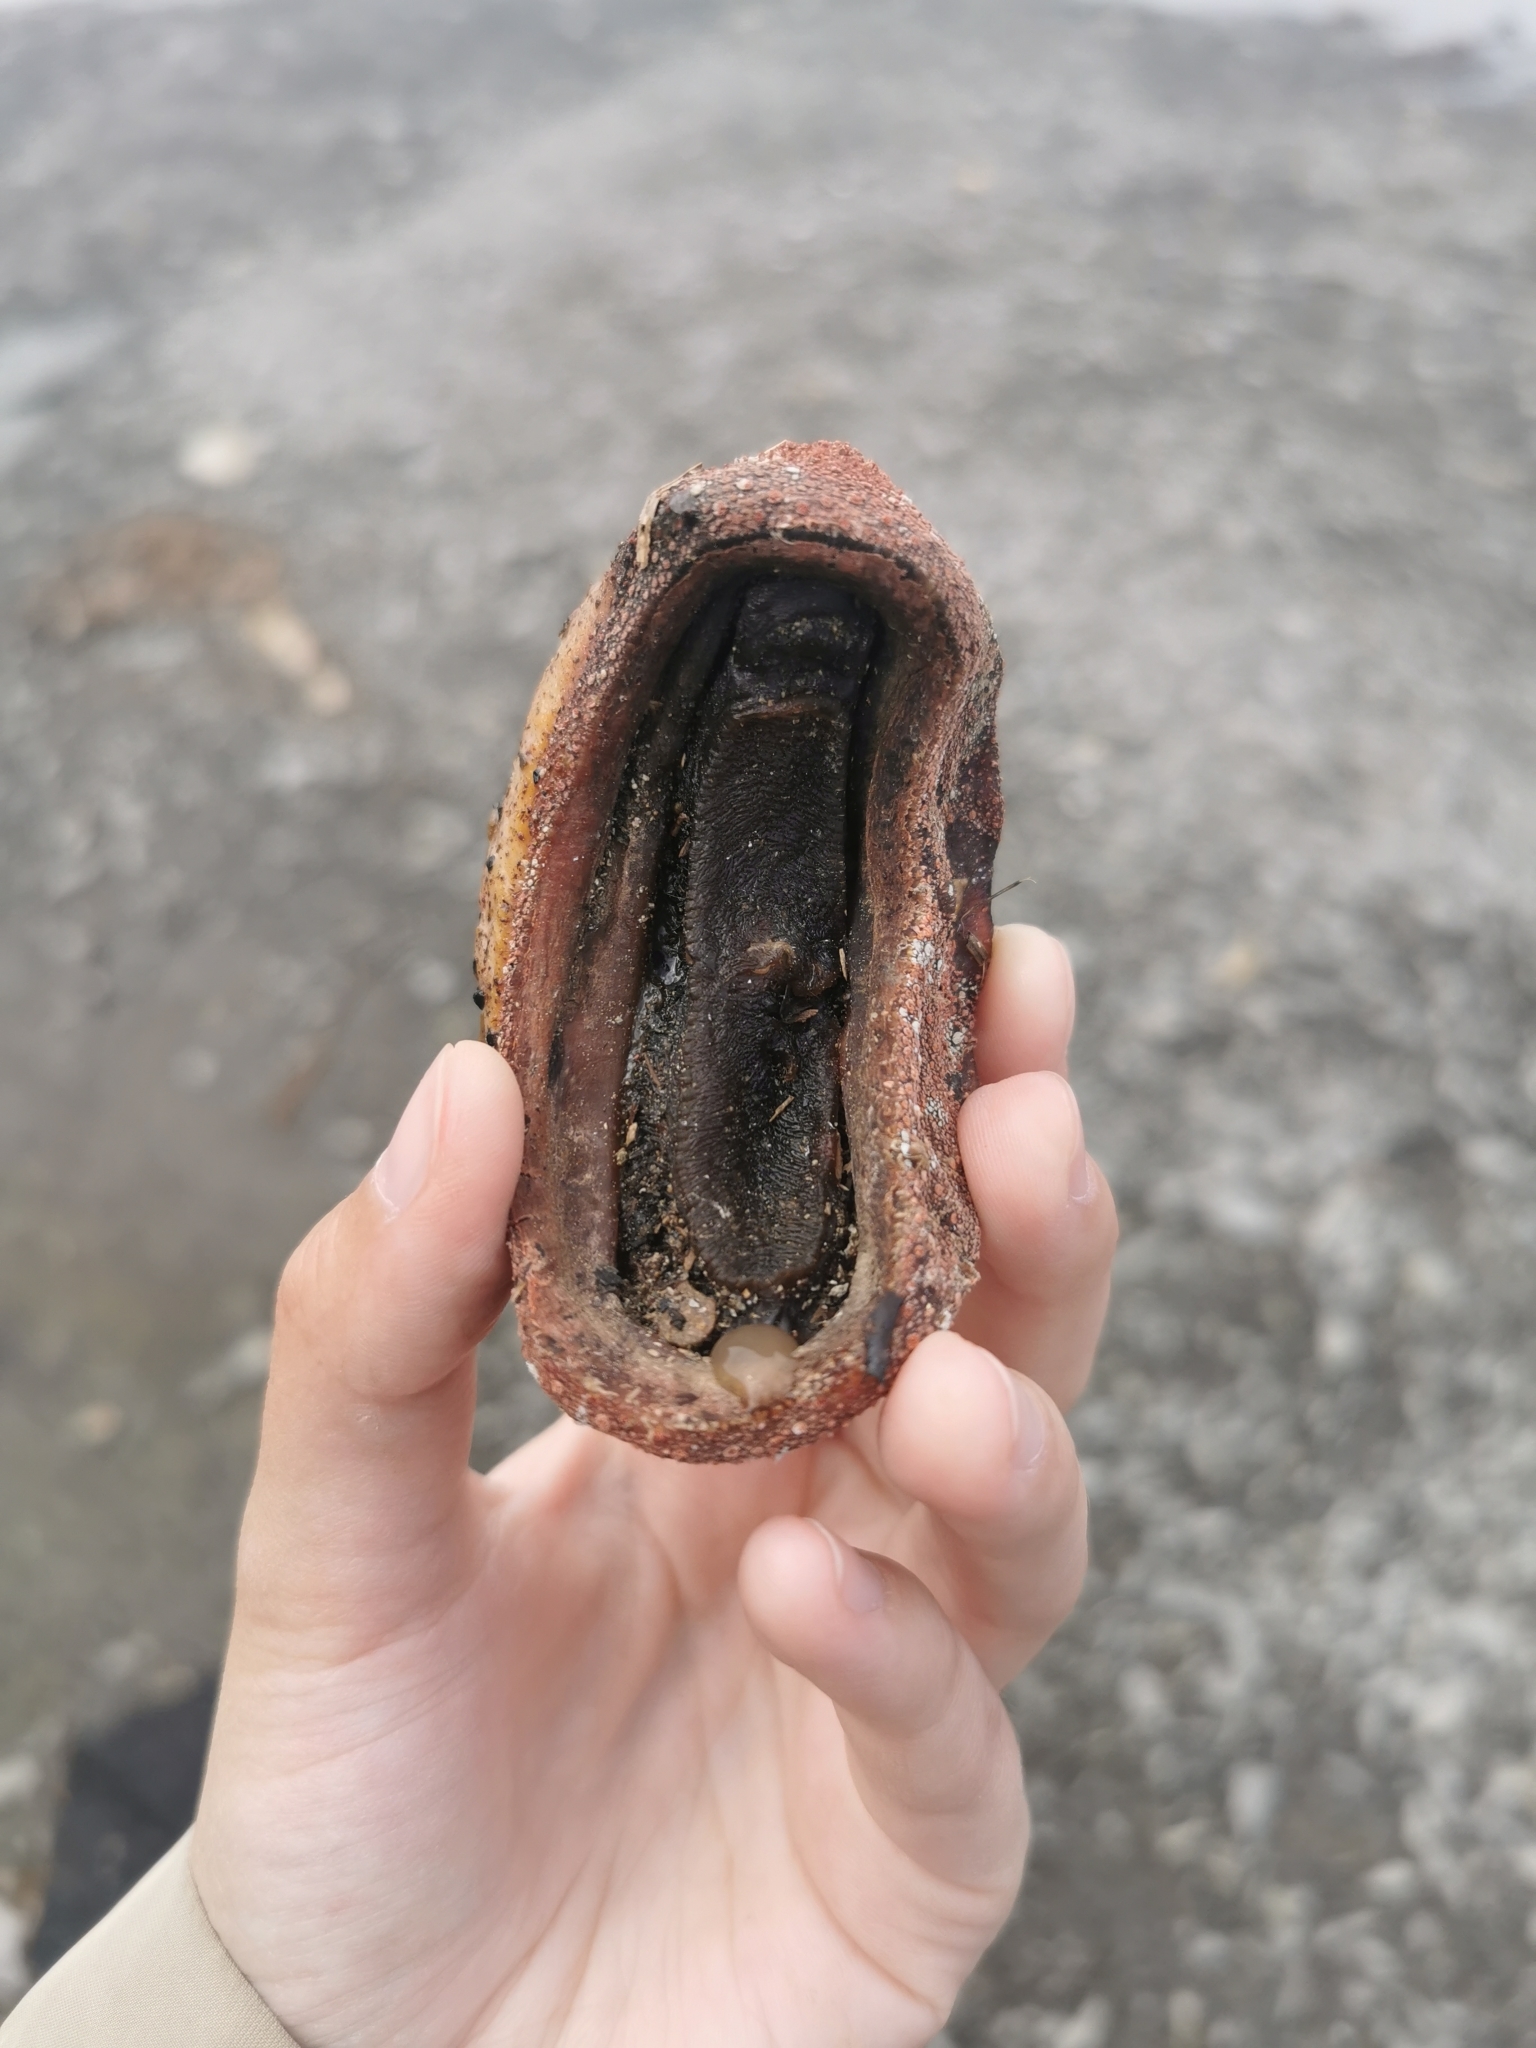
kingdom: Animalia
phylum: Mollusca
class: Polyplacophora
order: Chitonida
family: Acanthochitonidae
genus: Cryptochiton
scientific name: Cryptochiton stelleri
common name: Giant pacific chiton
